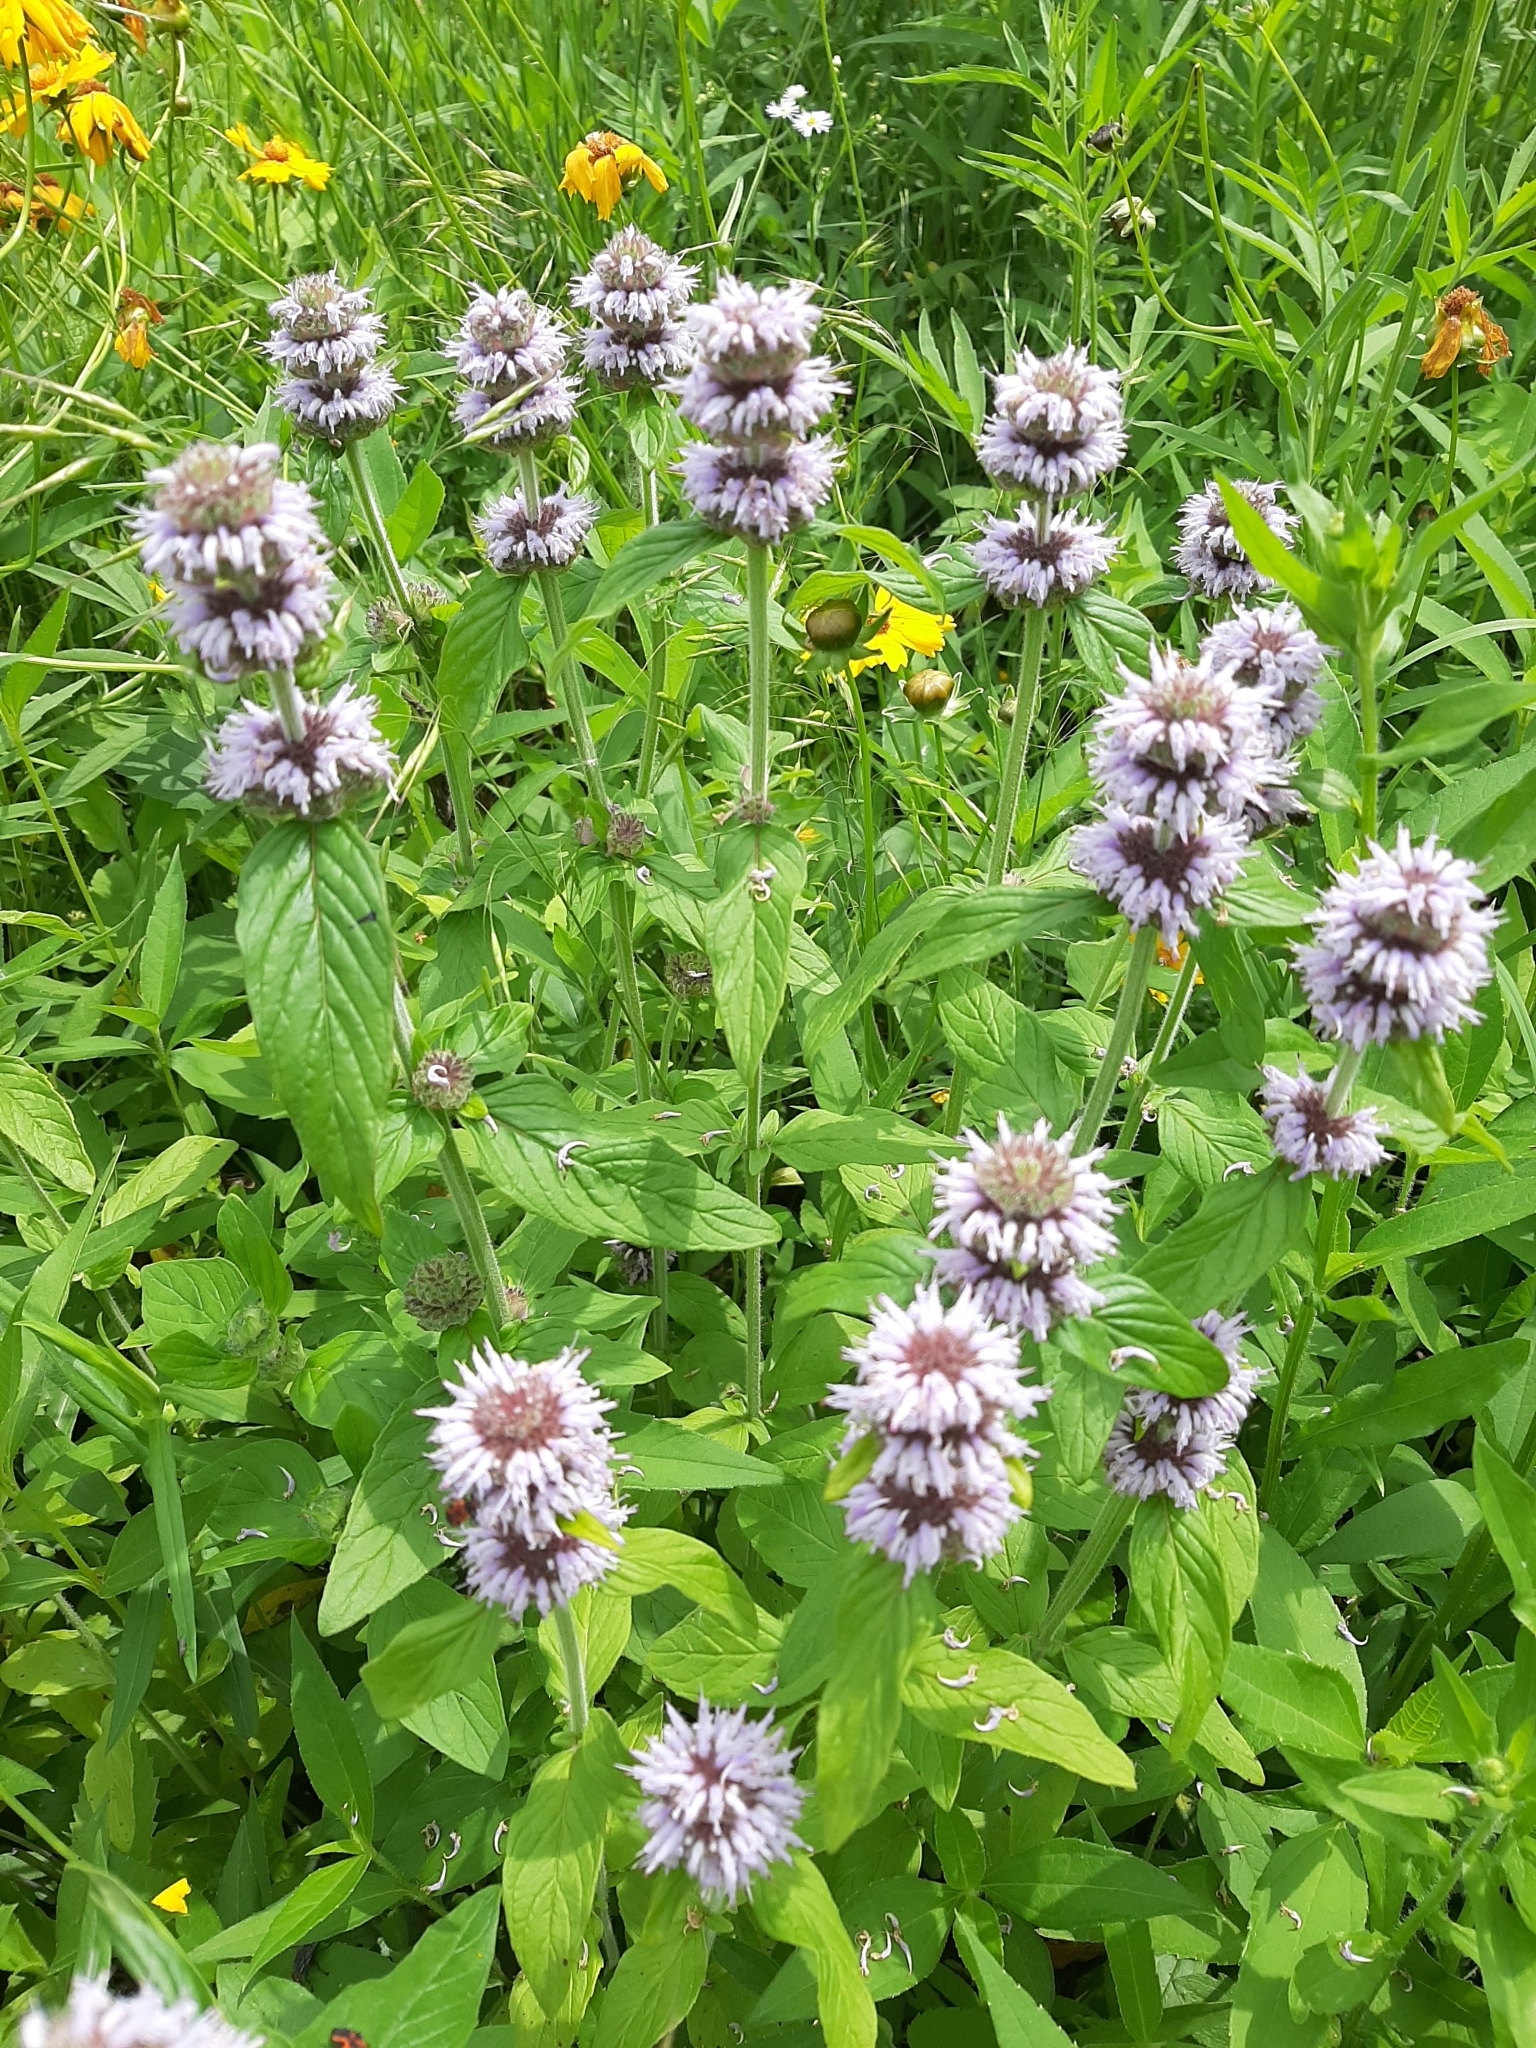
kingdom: Plantae
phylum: Tracheophyta
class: Magnoliopsida
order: Lamiales
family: Lamiaceae
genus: Blephilia
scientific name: Blephilia ciliata
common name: Downy blephilia
